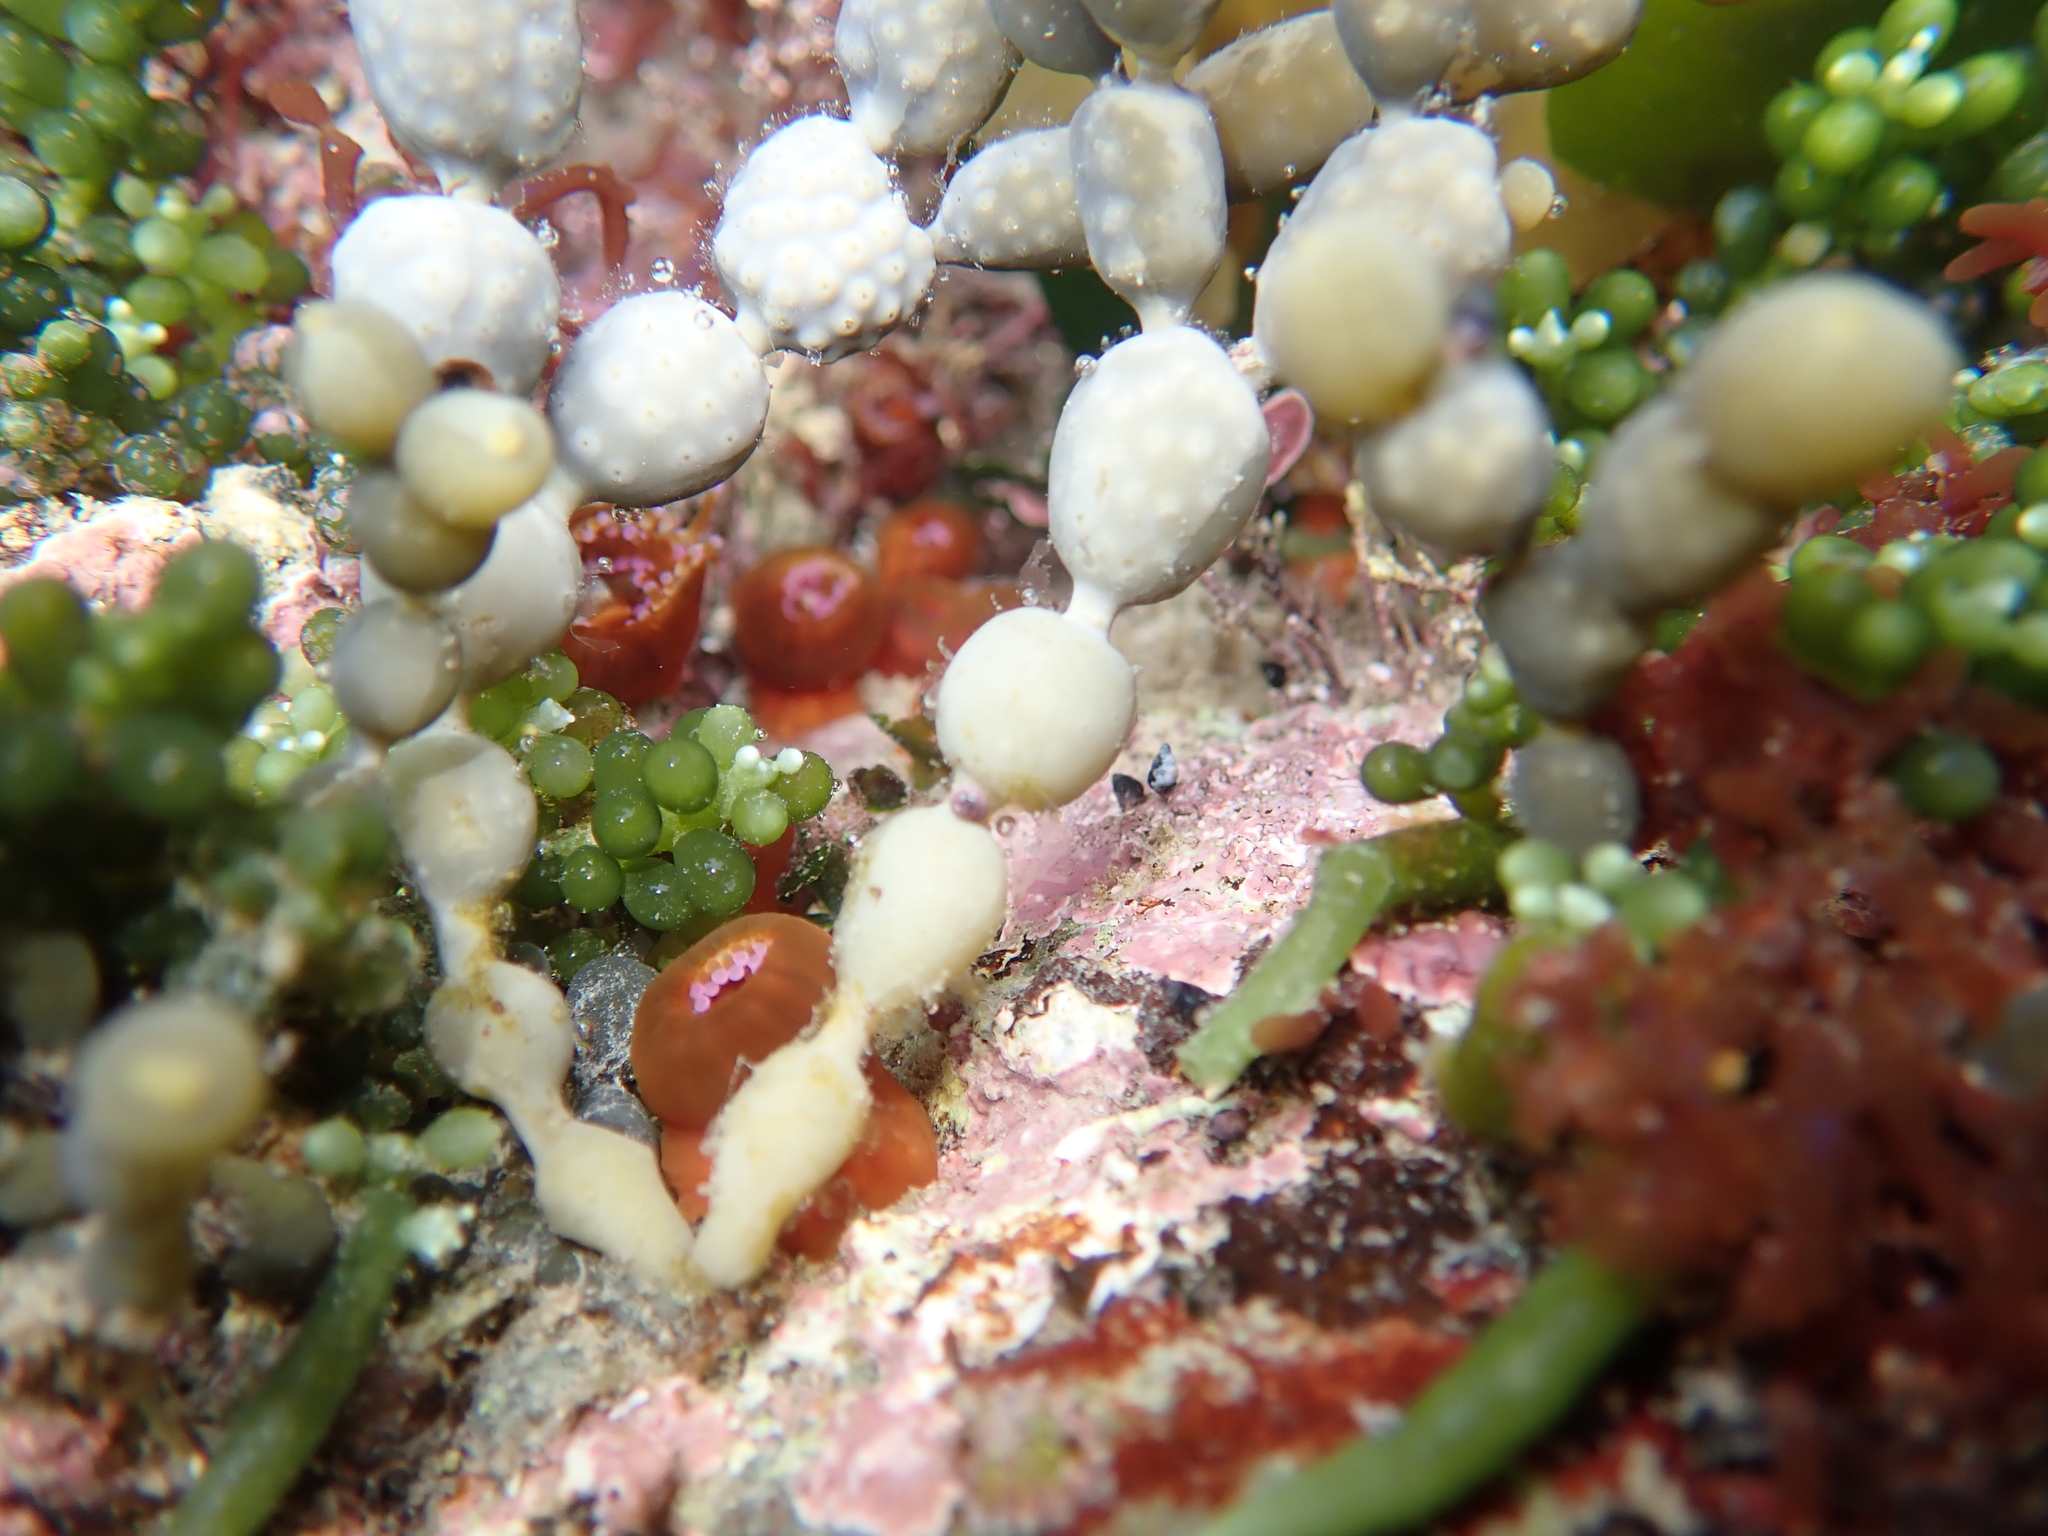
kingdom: Animalia
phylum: Cnidaria
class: Anthozoa
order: Corallimorpharia
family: Corallimorphidae
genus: Corynactis
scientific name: Corynactis australis
